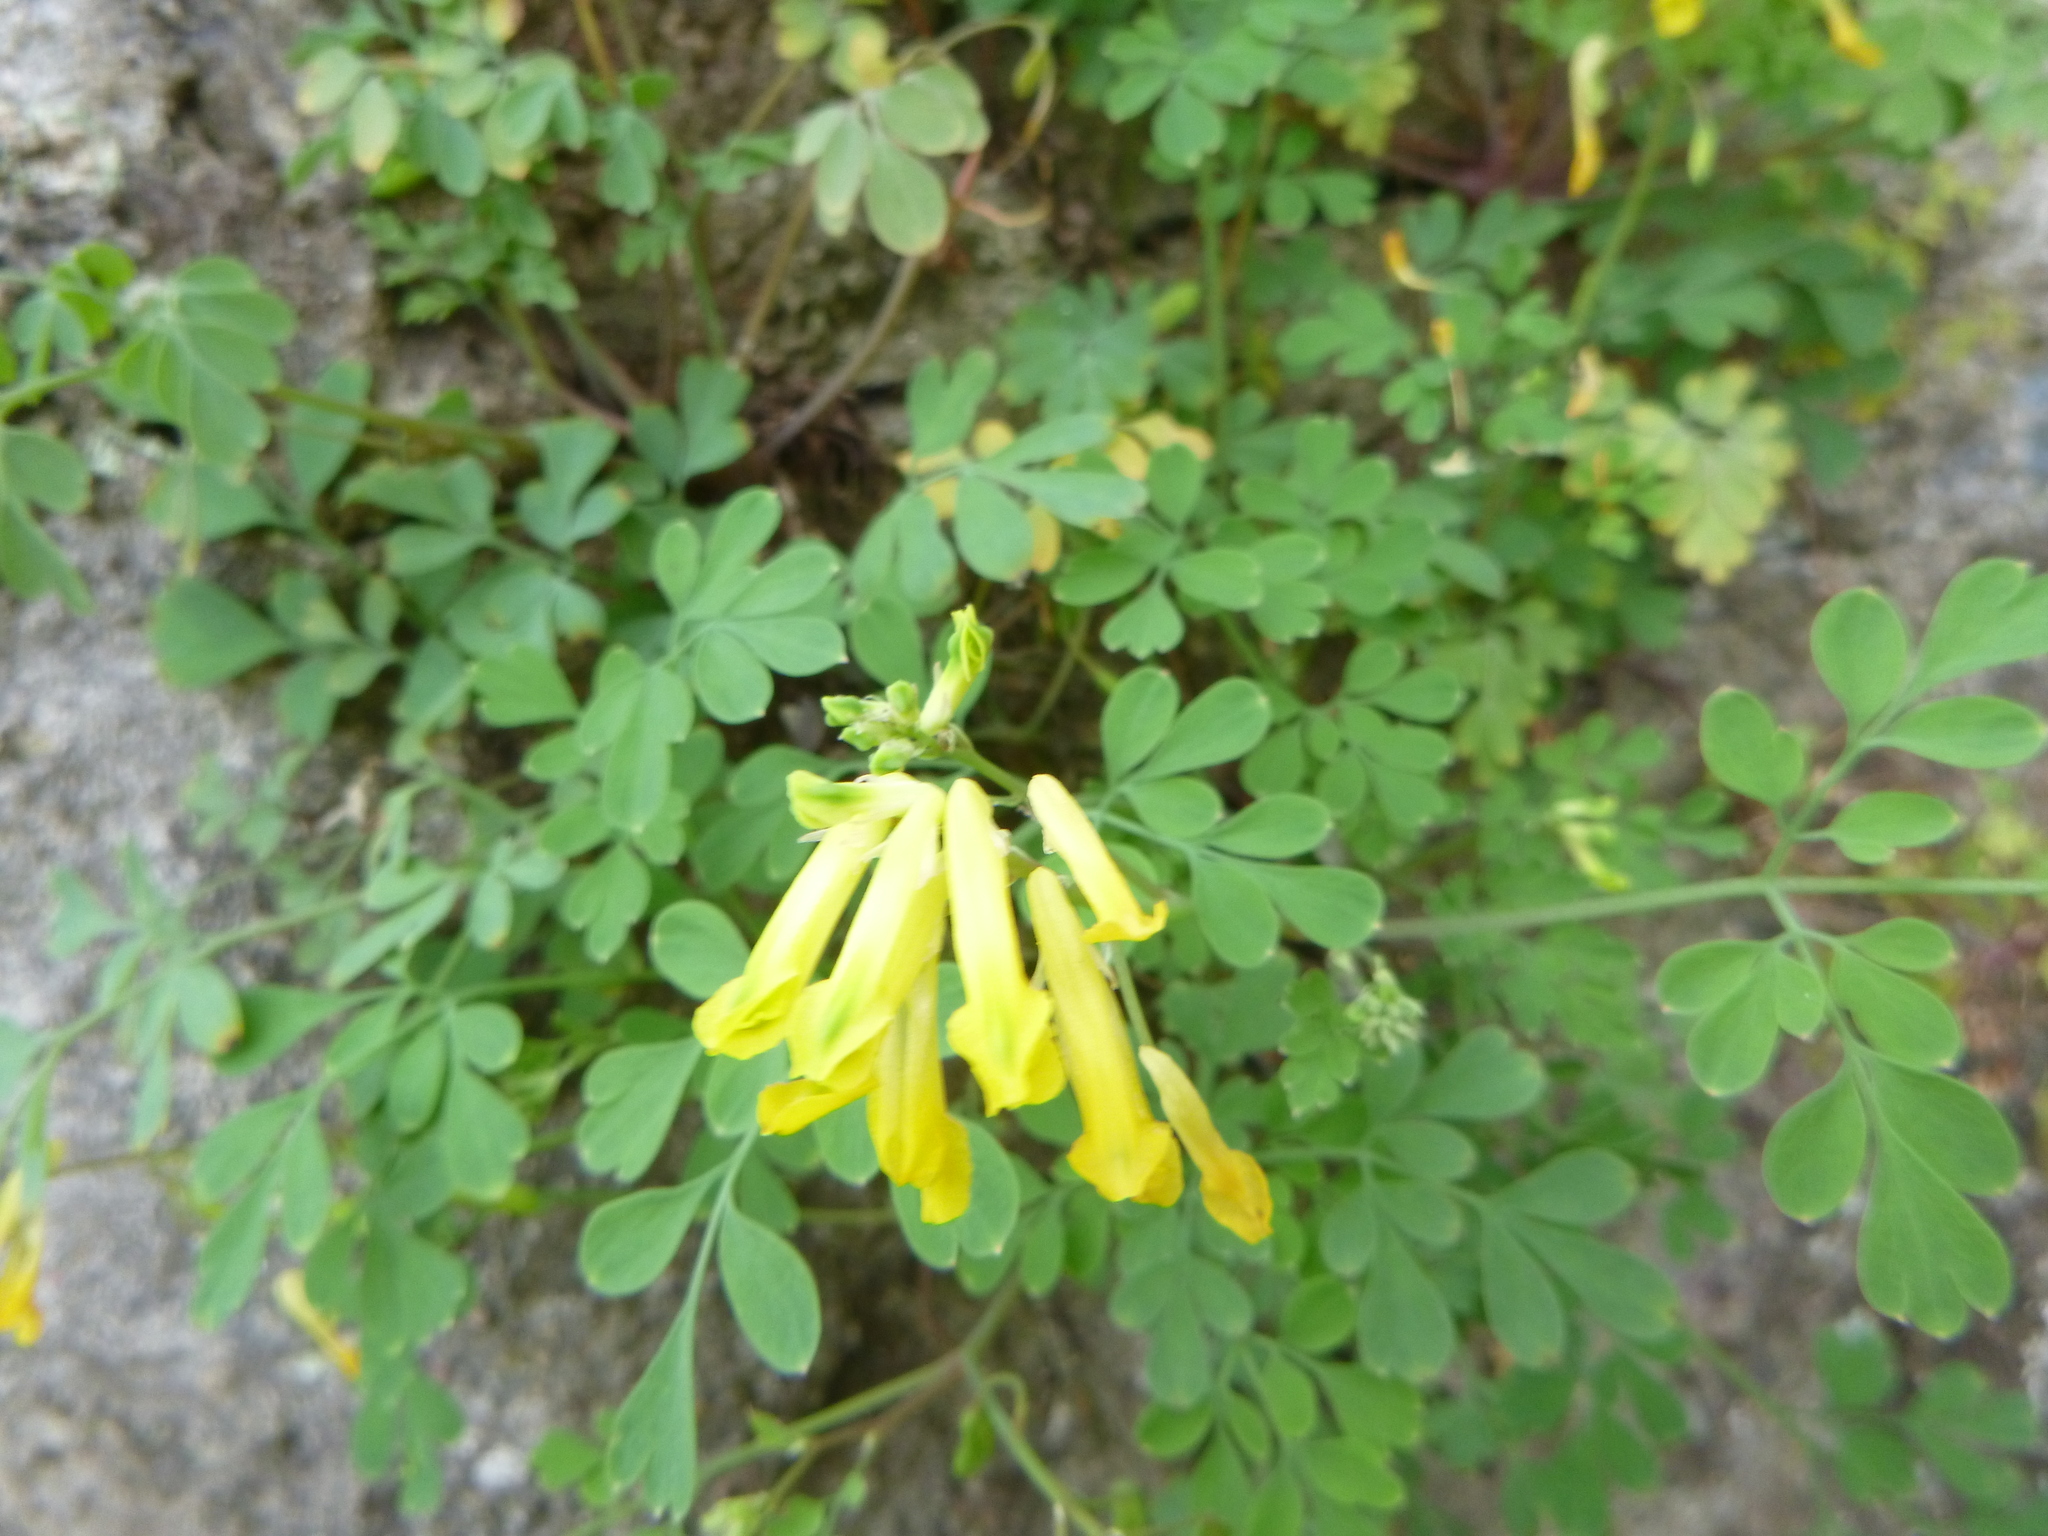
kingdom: Plantae
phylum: Tracheophyta
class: Magnoliopsida
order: Ranunculales
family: Papaveraceae
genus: Pseudofumaria
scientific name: Pseudofumaria lutea
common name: Yellow corydalis
